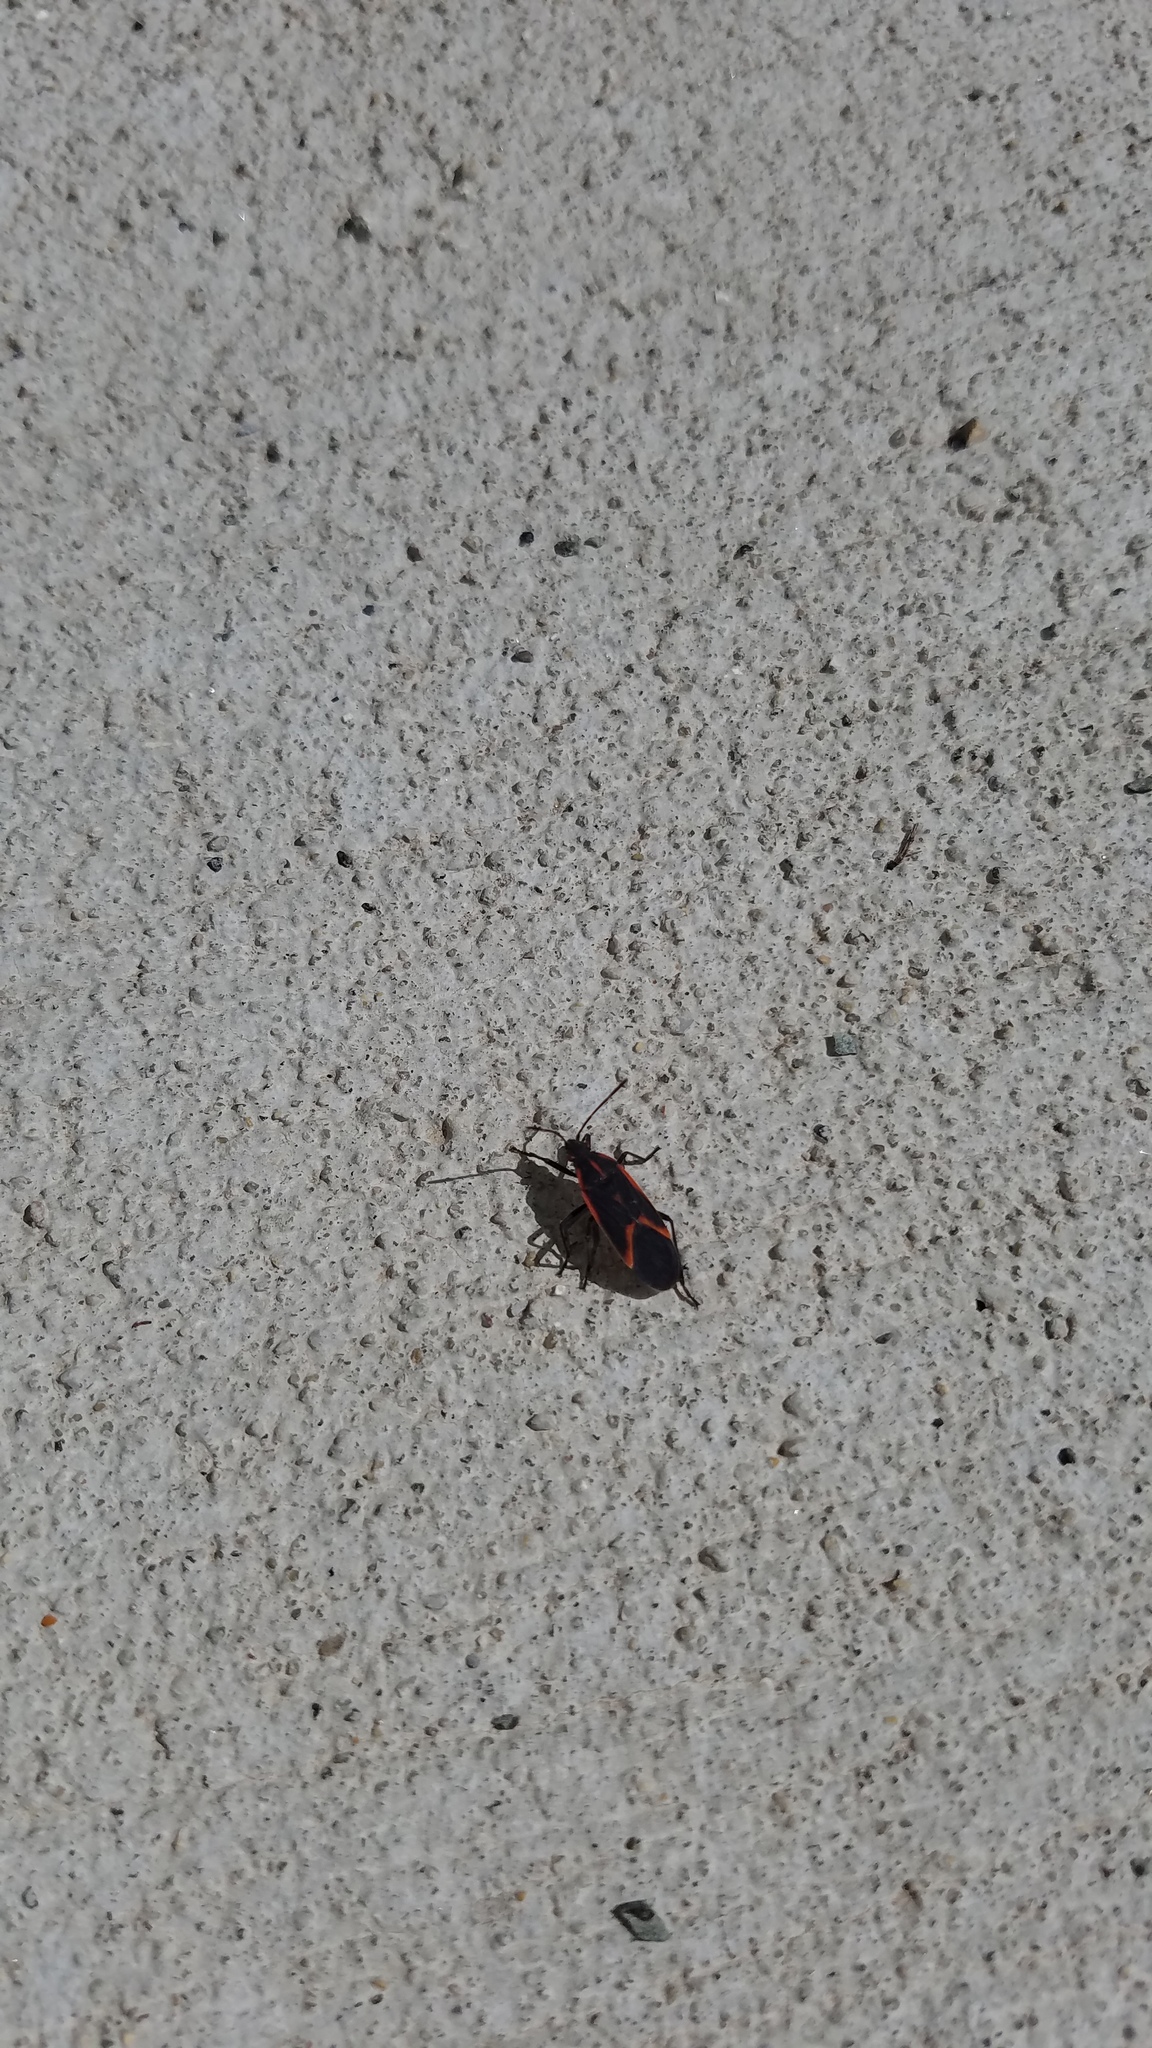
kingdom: Animalia
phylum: Arthropoda
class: Insecta
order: Hemiptera
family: Rhopalidae
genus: Boisea
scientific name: Boisea trivittata
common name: Boxelder bug
